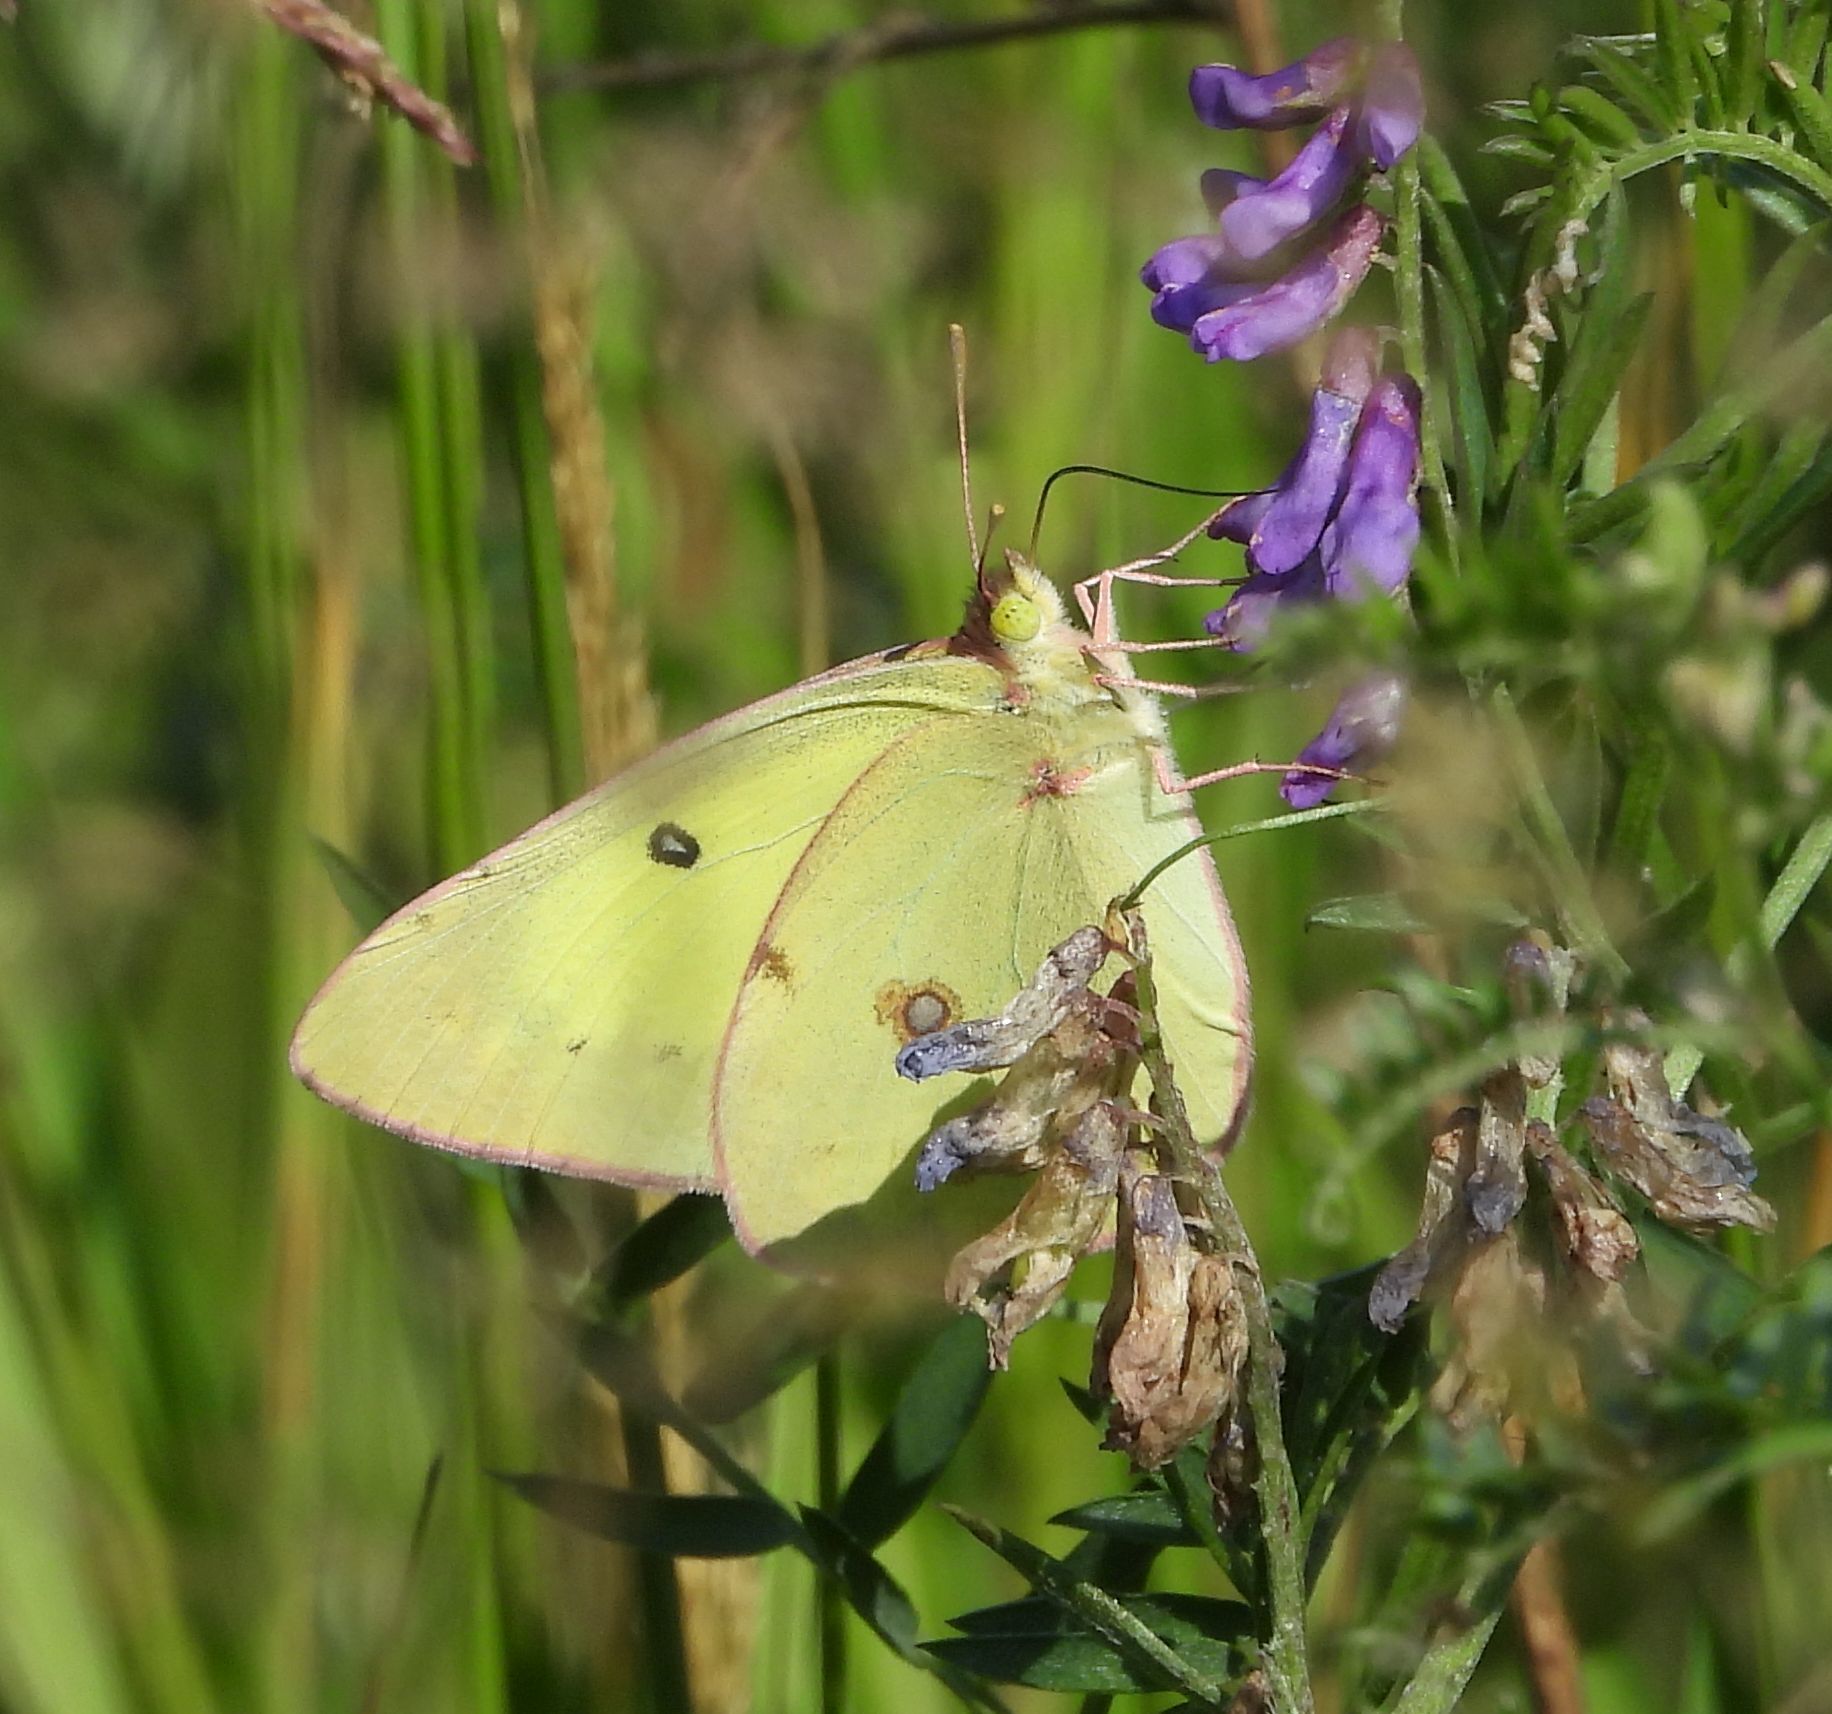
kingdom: Animalia
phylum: Arthropoda
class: Insecta
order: Lepidoptera
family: Pieridae
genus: Colias
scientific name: Colias philodice
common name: Clouded sulphur
